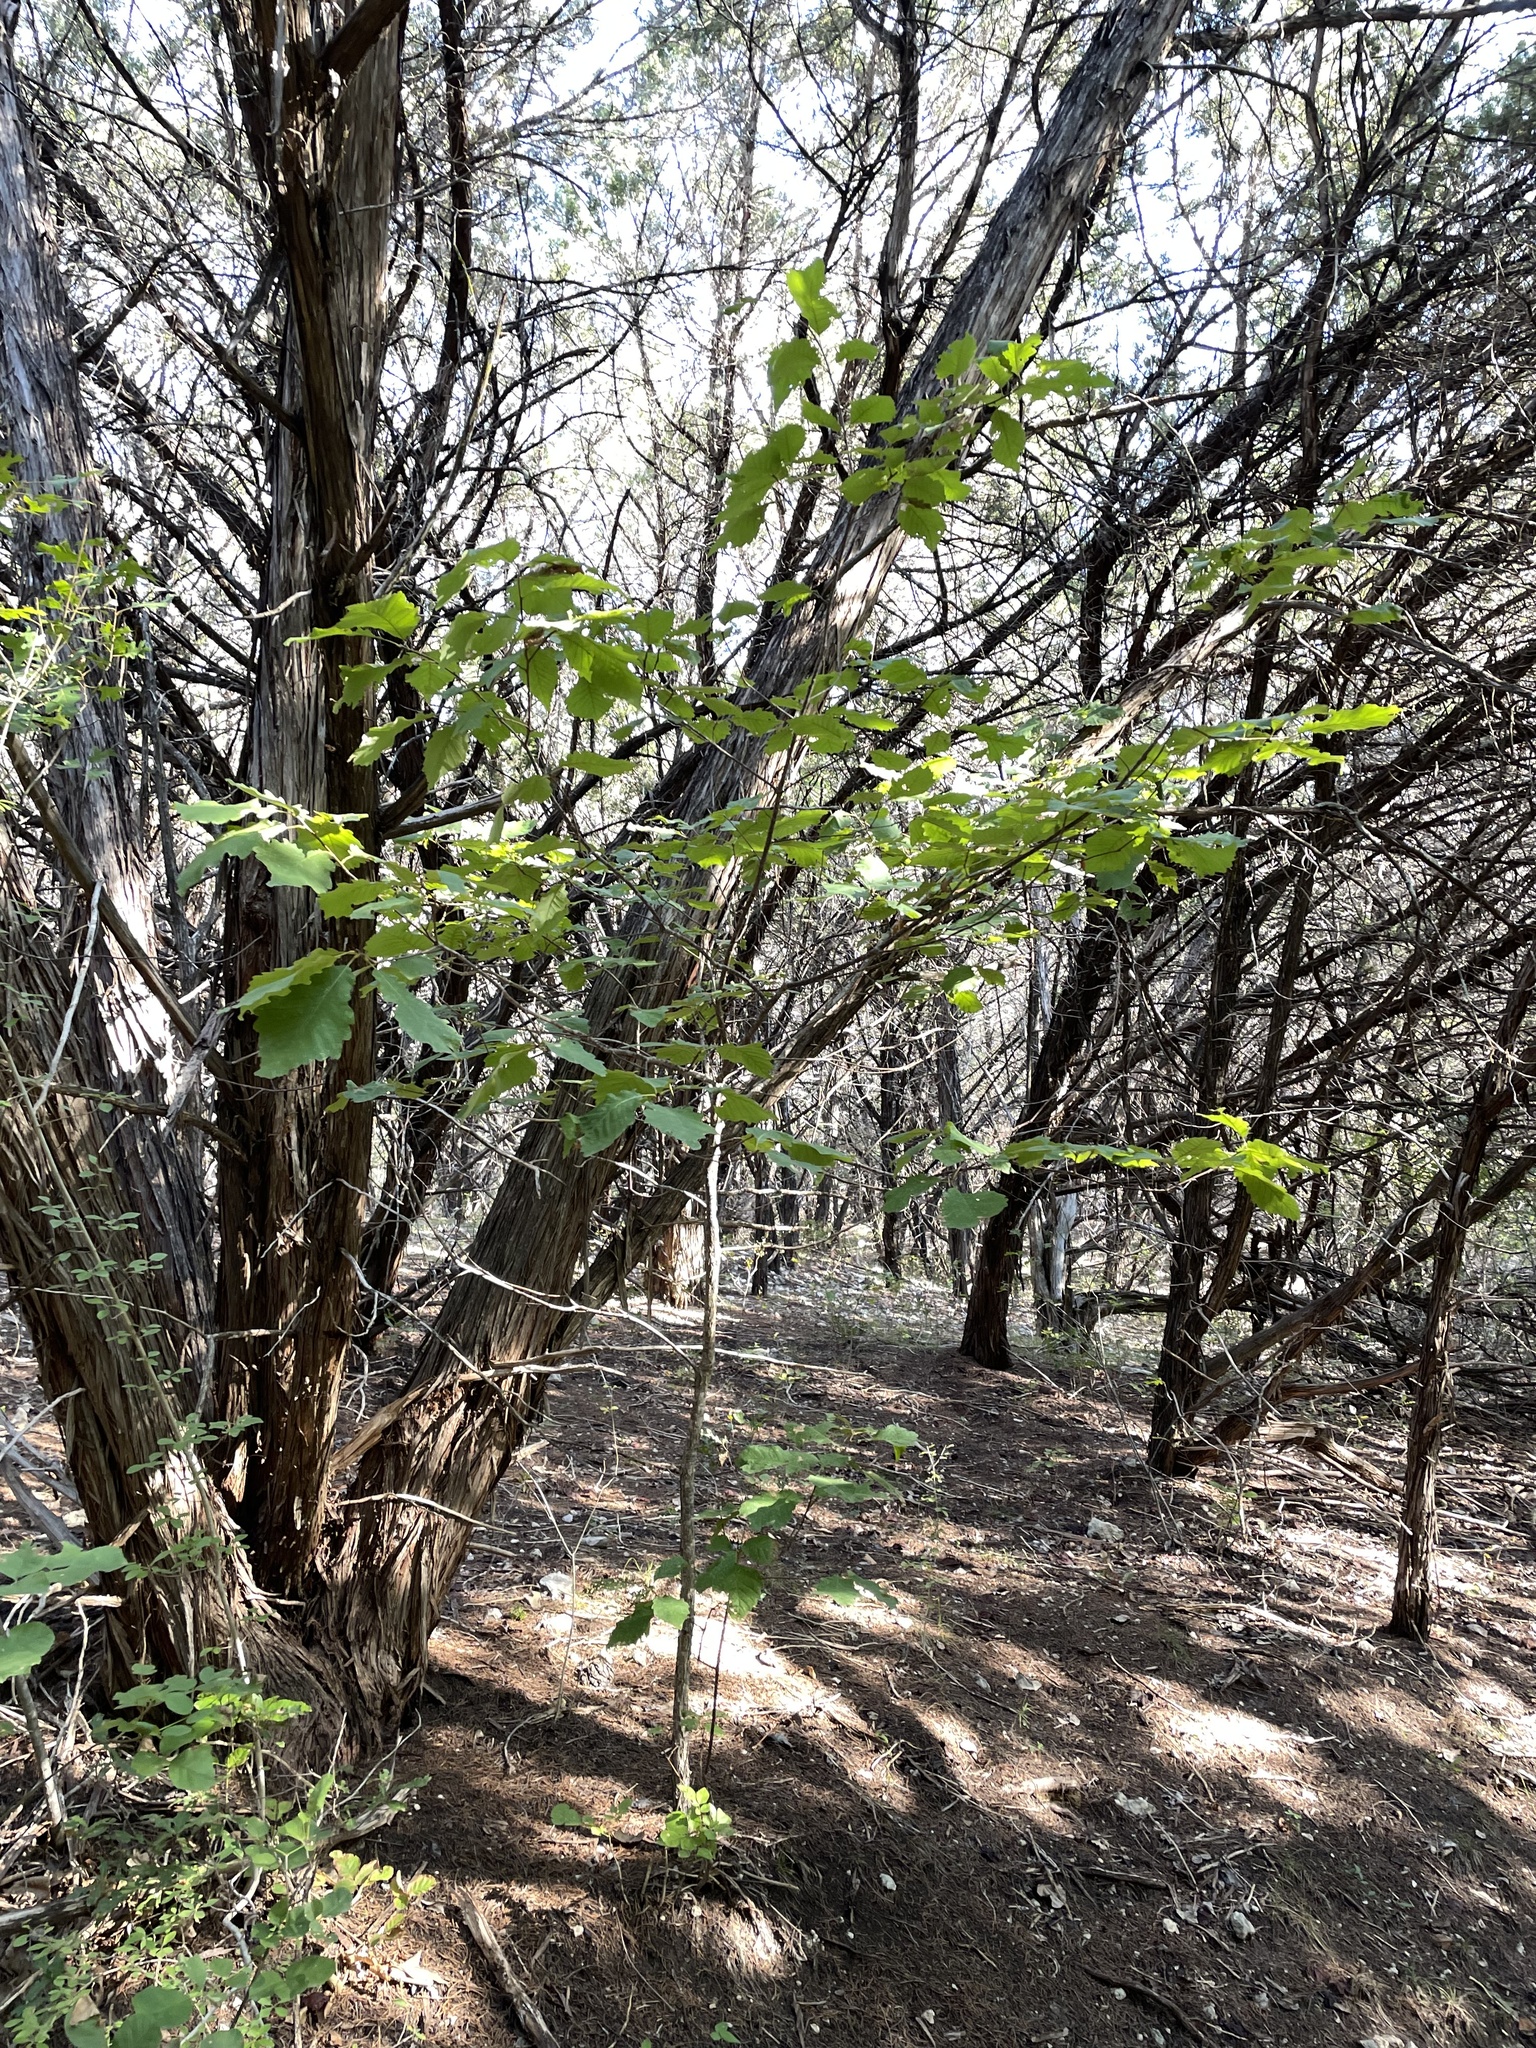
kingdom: Plantae
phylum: Tracheophyta
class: Magnoliopsida
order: Fagales
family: Fagaceae
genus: Quercus
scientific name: Quercus muehlenbergii
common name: Chinkapin oak
